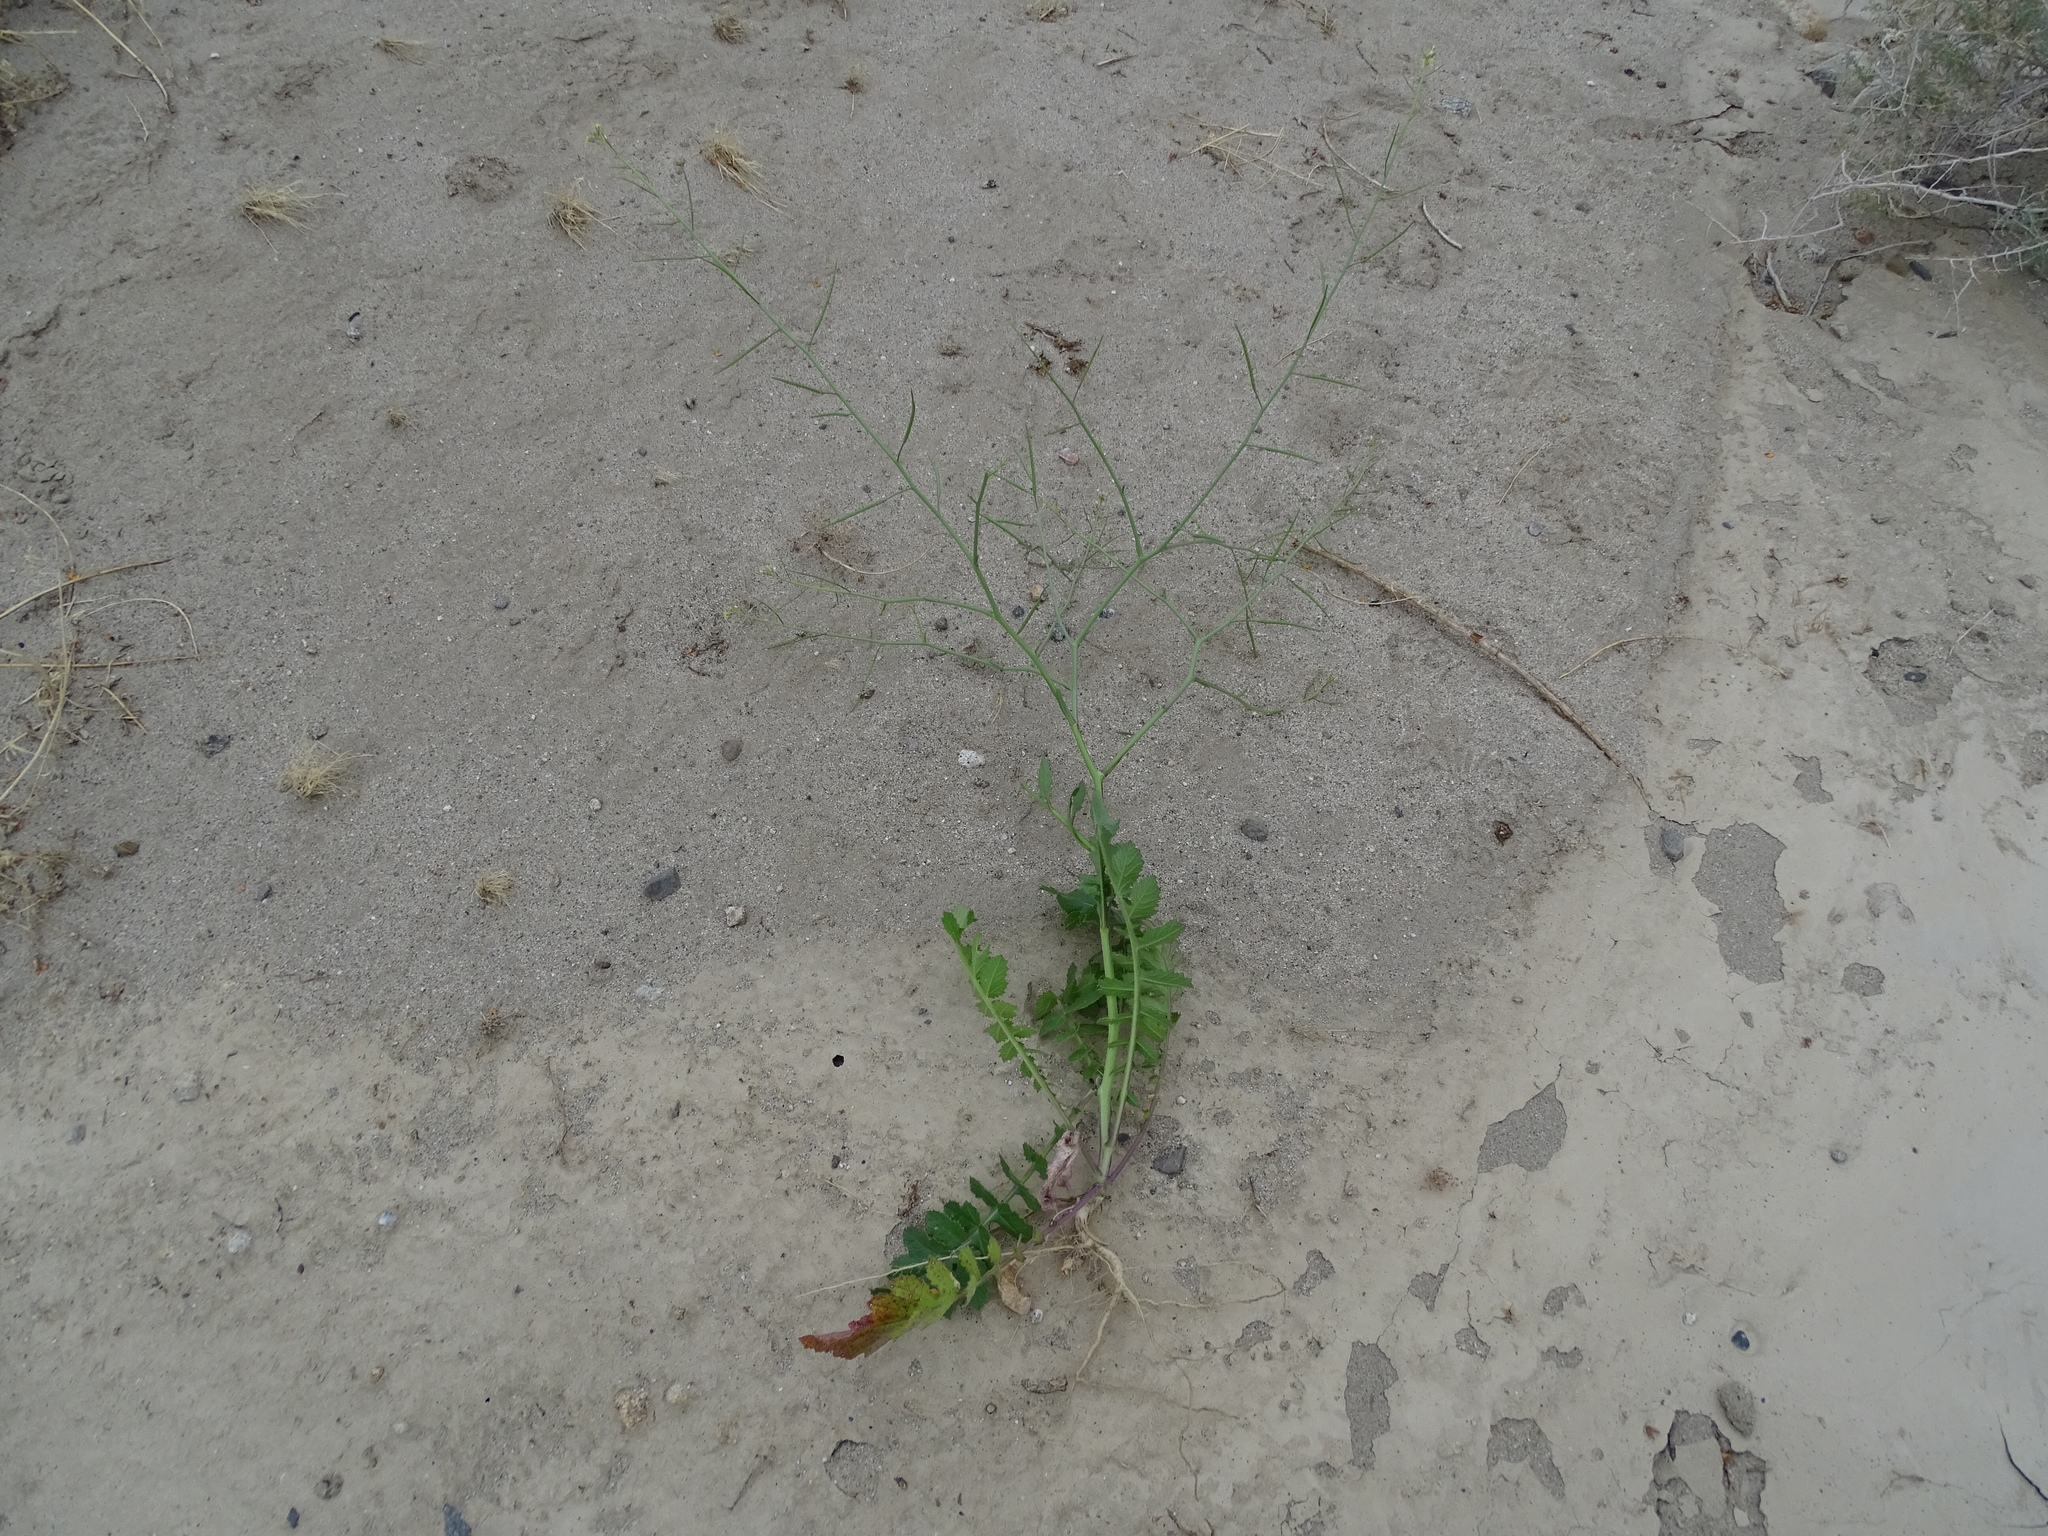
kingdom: Plantae
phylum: Tracheophyta
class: Magnoliopsida
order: Brassicales
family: Brassicaceae
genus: Brassica
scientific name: Brassica tournefortii
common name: Pale cabbage
